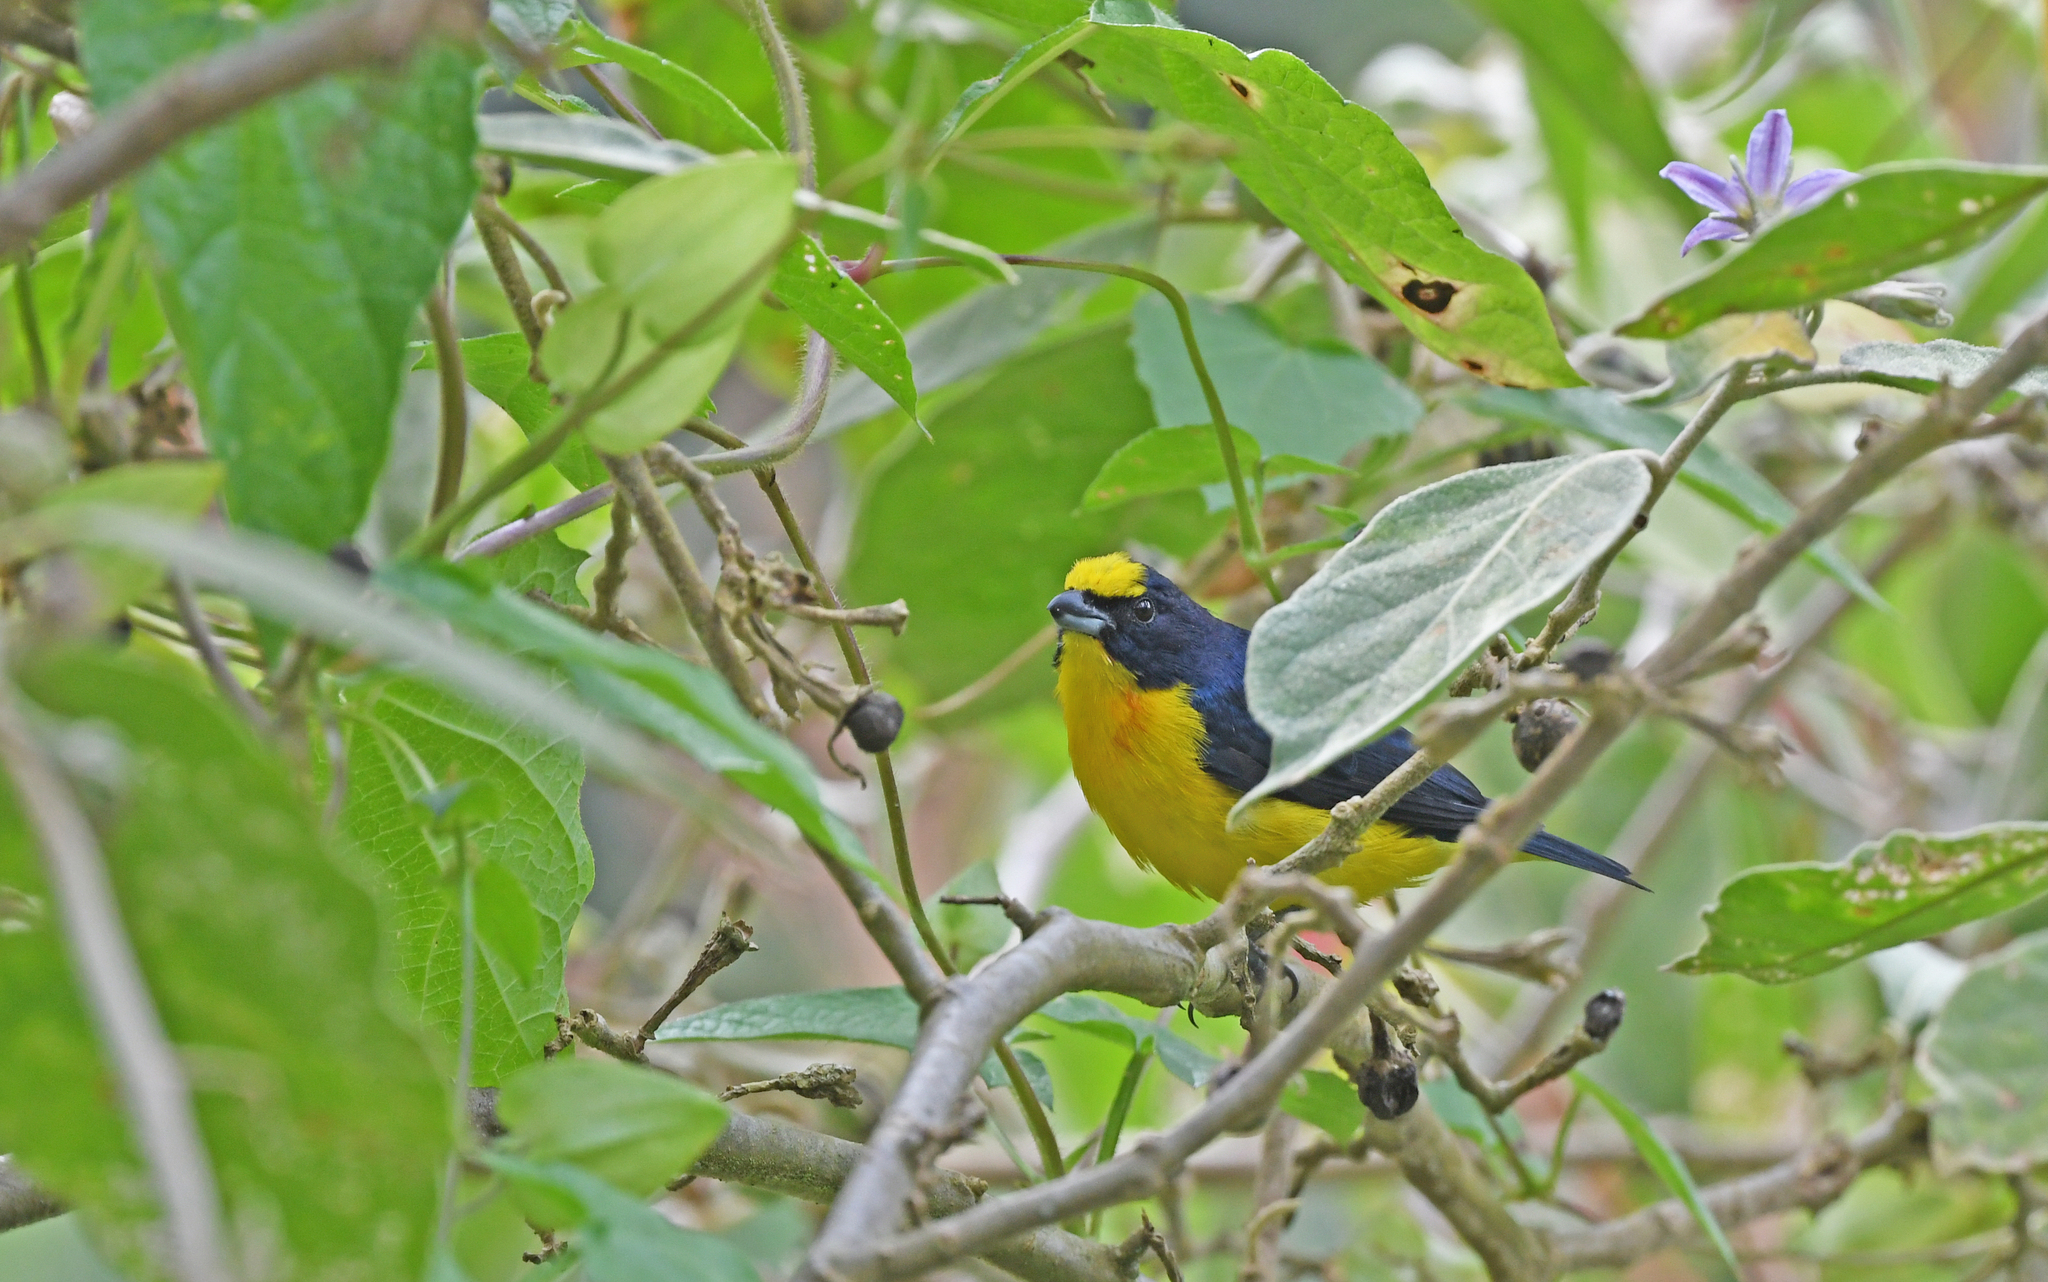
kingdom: Animalia
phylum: Chordata
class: Aves
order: Passeriformes
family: Fringillidae
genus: Euphonia
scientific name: Euphonia laniirostris
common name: Thick-billed euphonia
